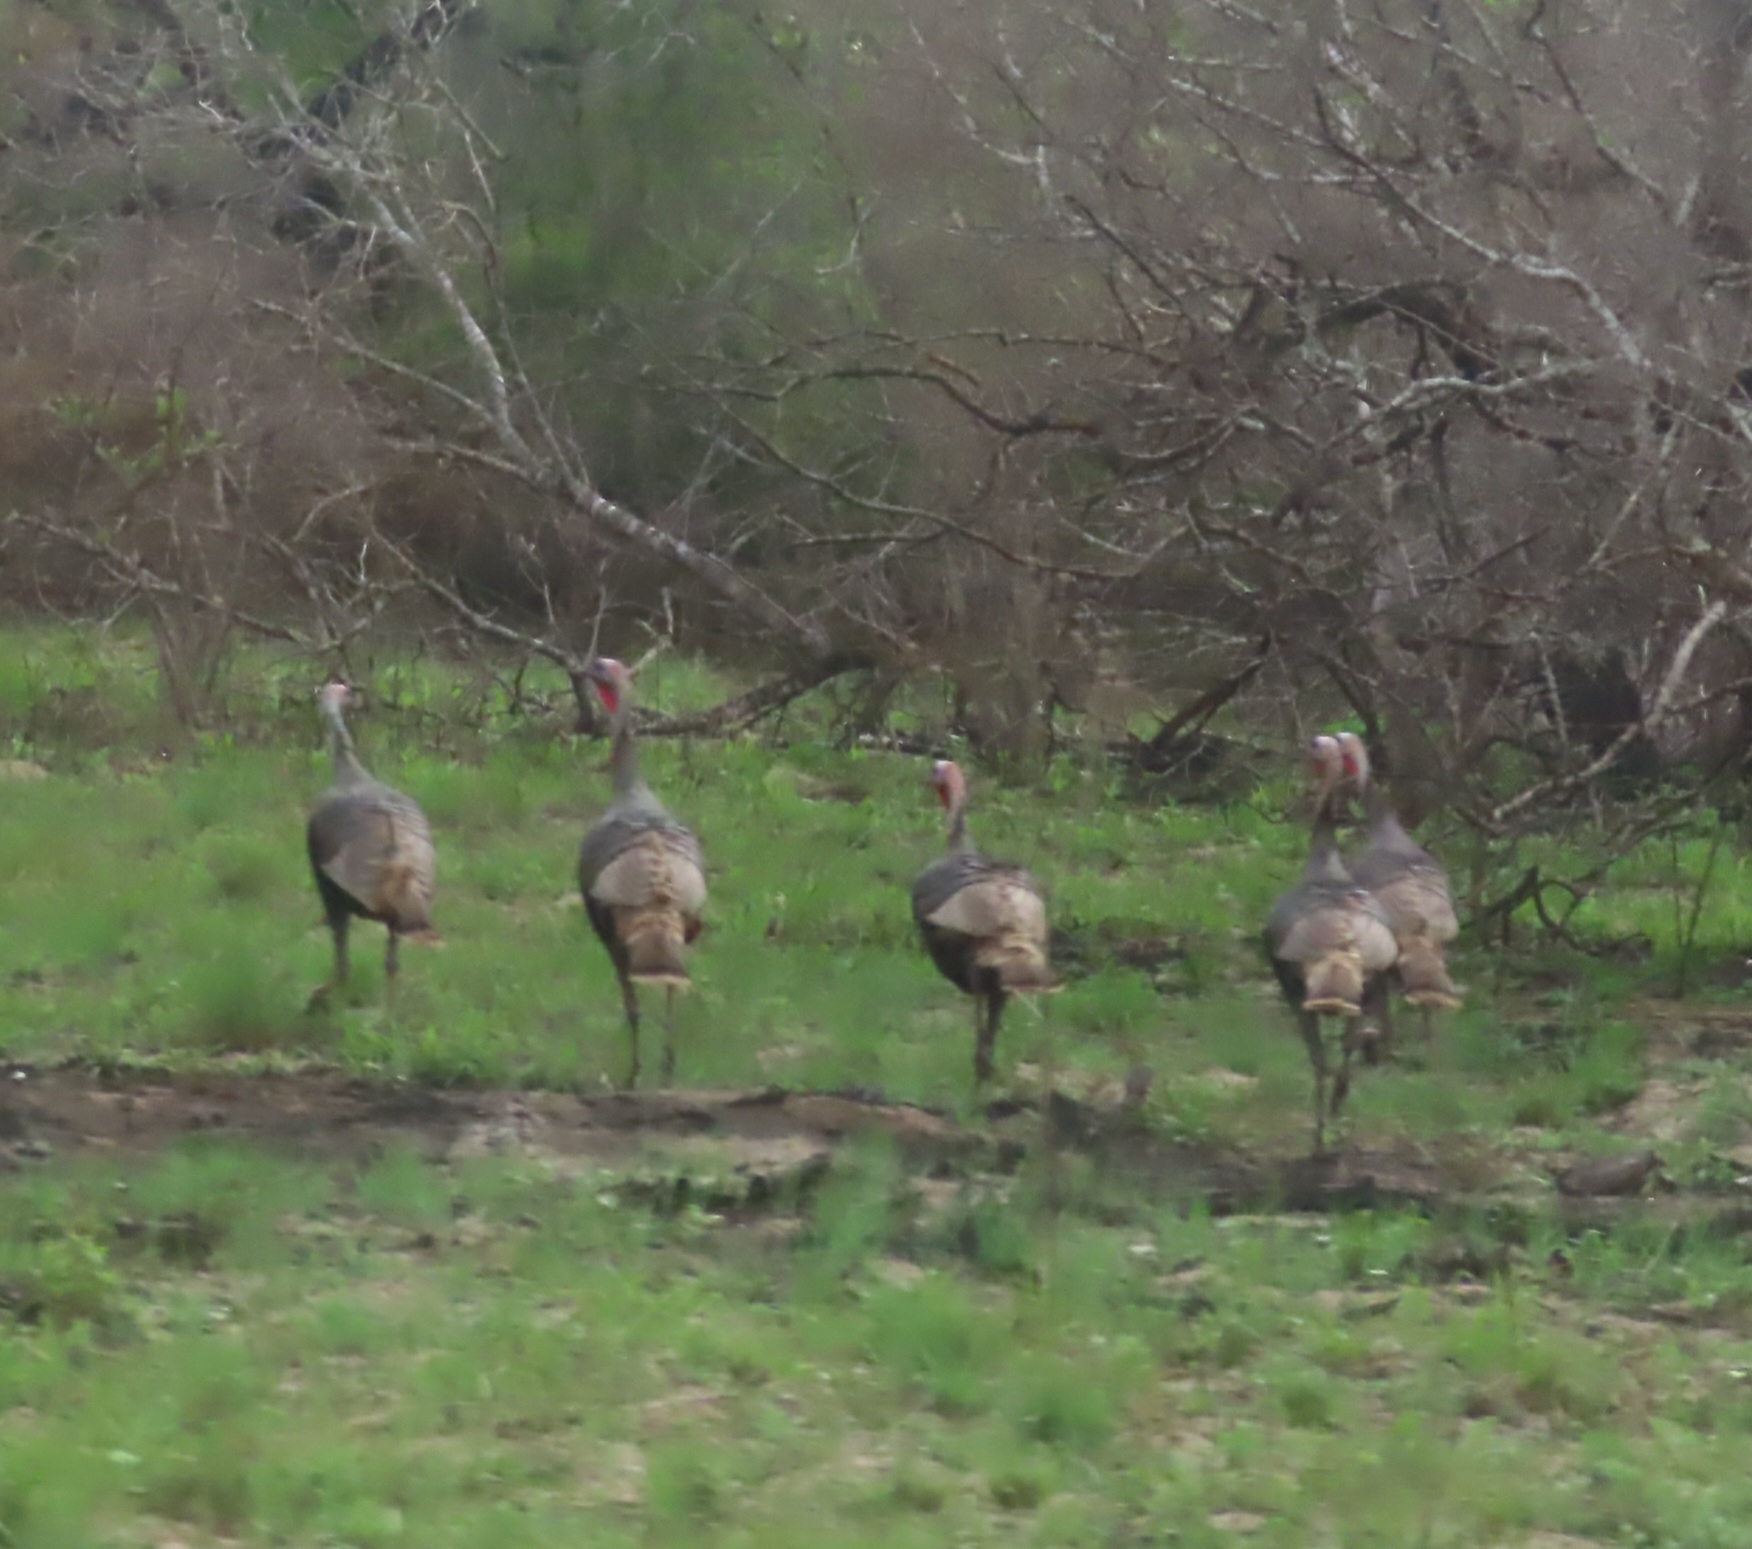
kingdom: Animalia
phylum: Chordata
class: Aves
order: Galliformes
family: Phasianidae
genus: Meleagris
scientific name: Meleagris gallopavo
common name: Wild turkey
